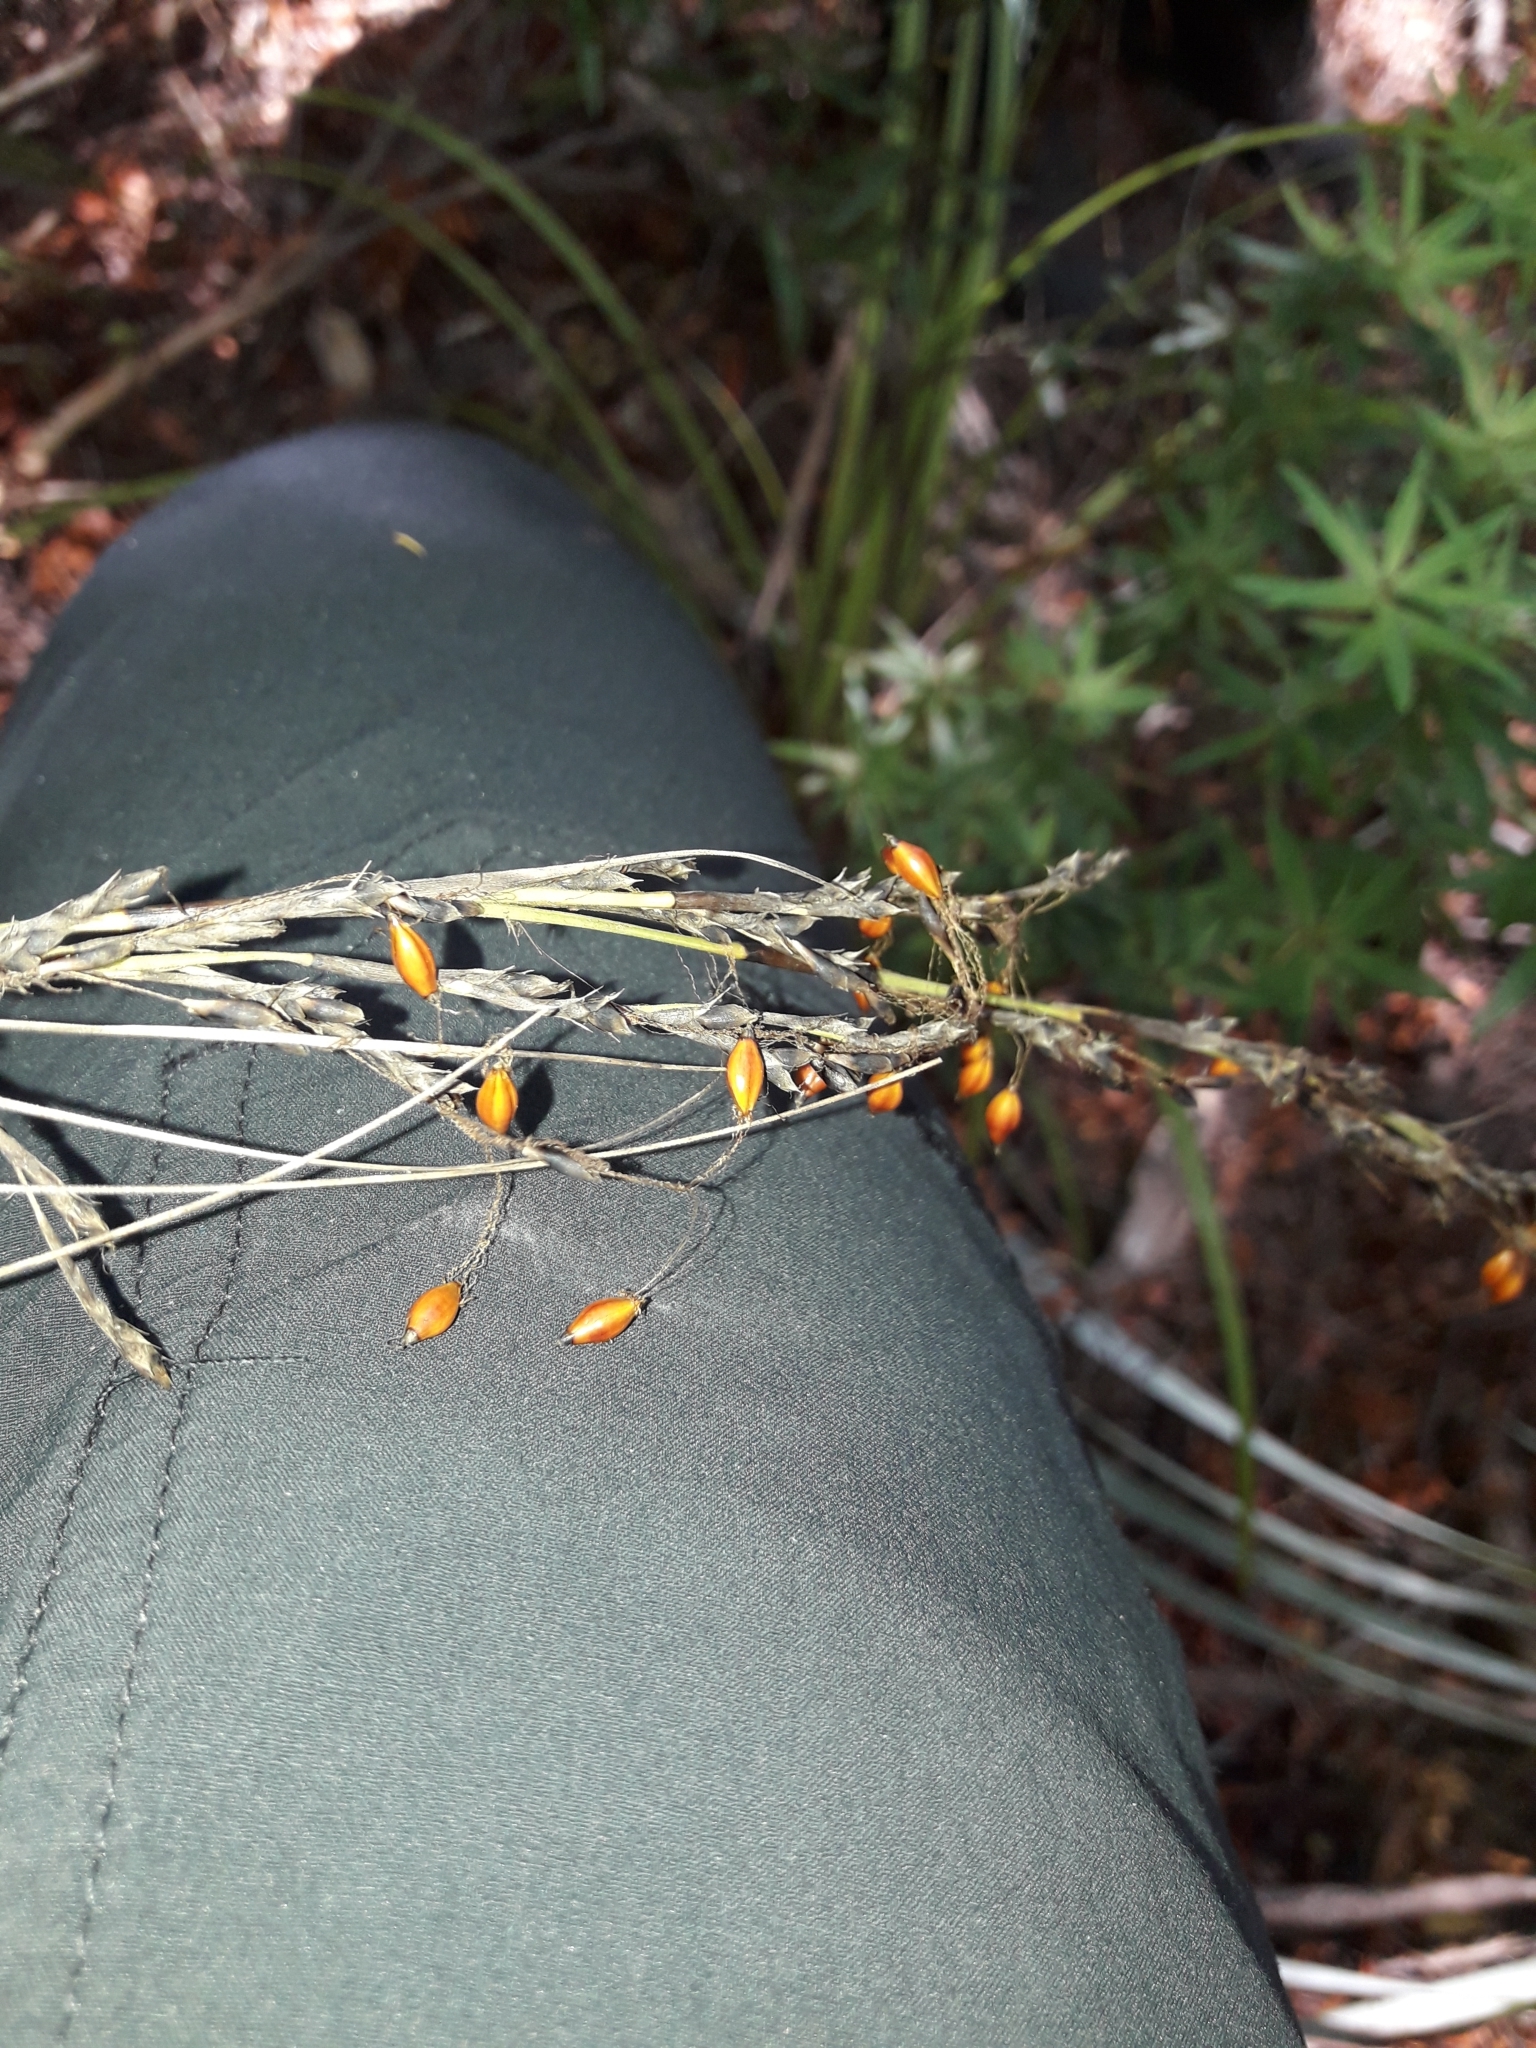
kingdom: Plantae
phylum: Tracheophyta
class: Liliopsida
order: Poales
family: Cyperaceae
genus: Gahnia
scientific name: Gahnia pauciflora
